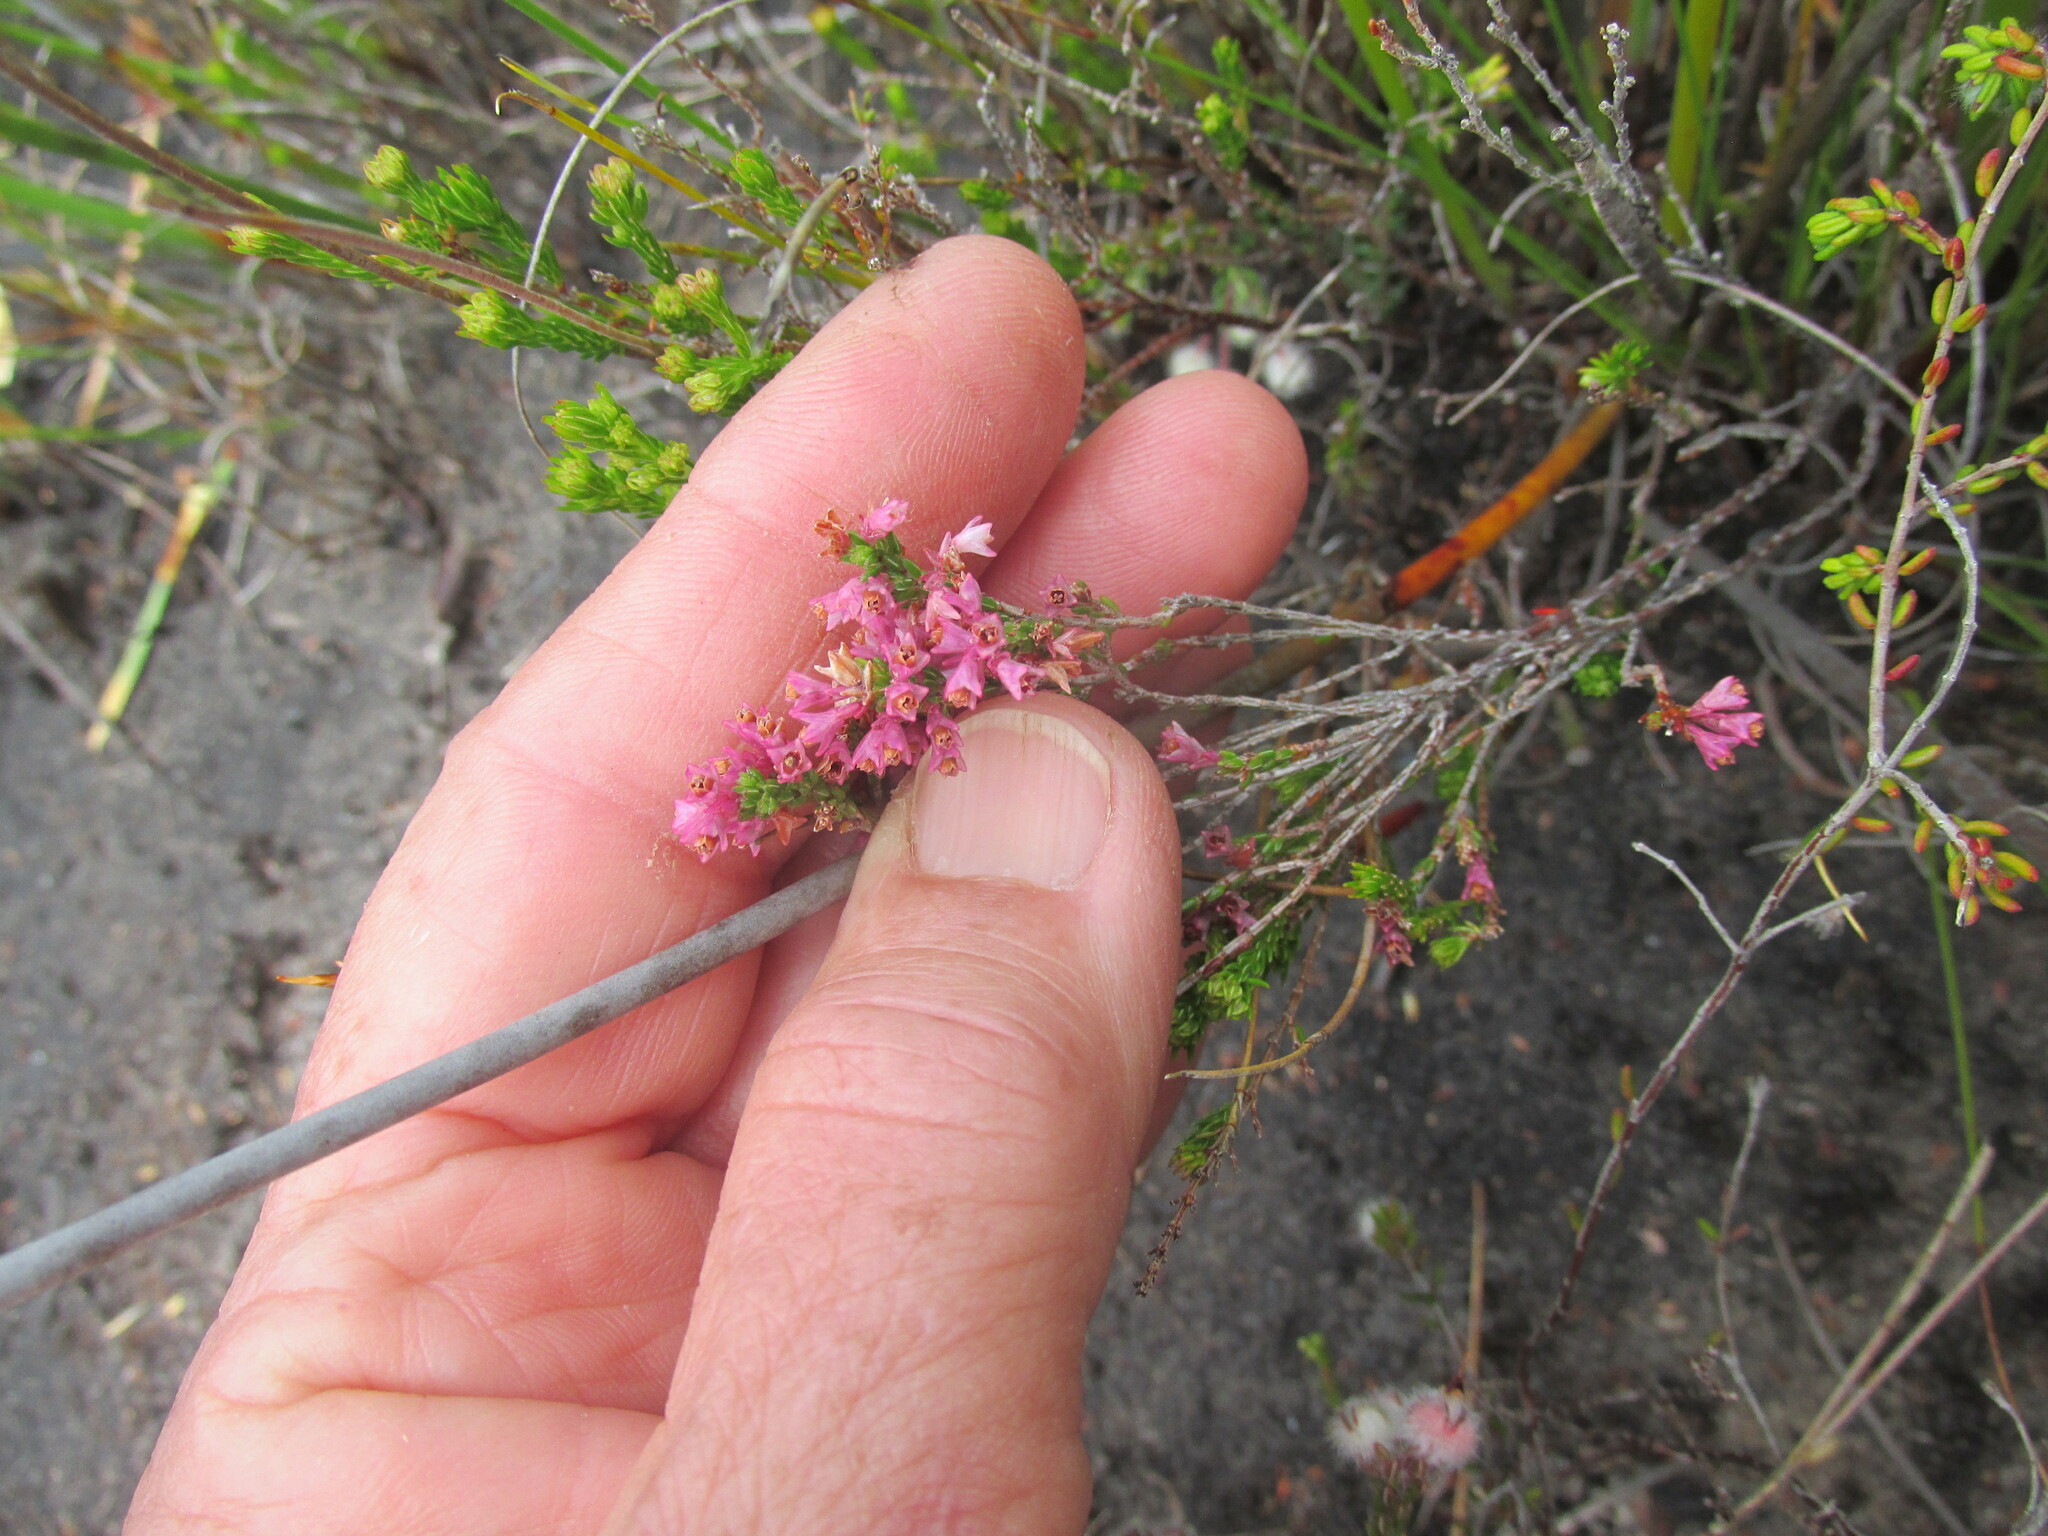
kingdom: Plantae
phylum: Tracheophyta
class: Magnoliopsida
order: Ericales
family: Ericaceae
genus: Erica
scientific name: Erica gnaphaloides
